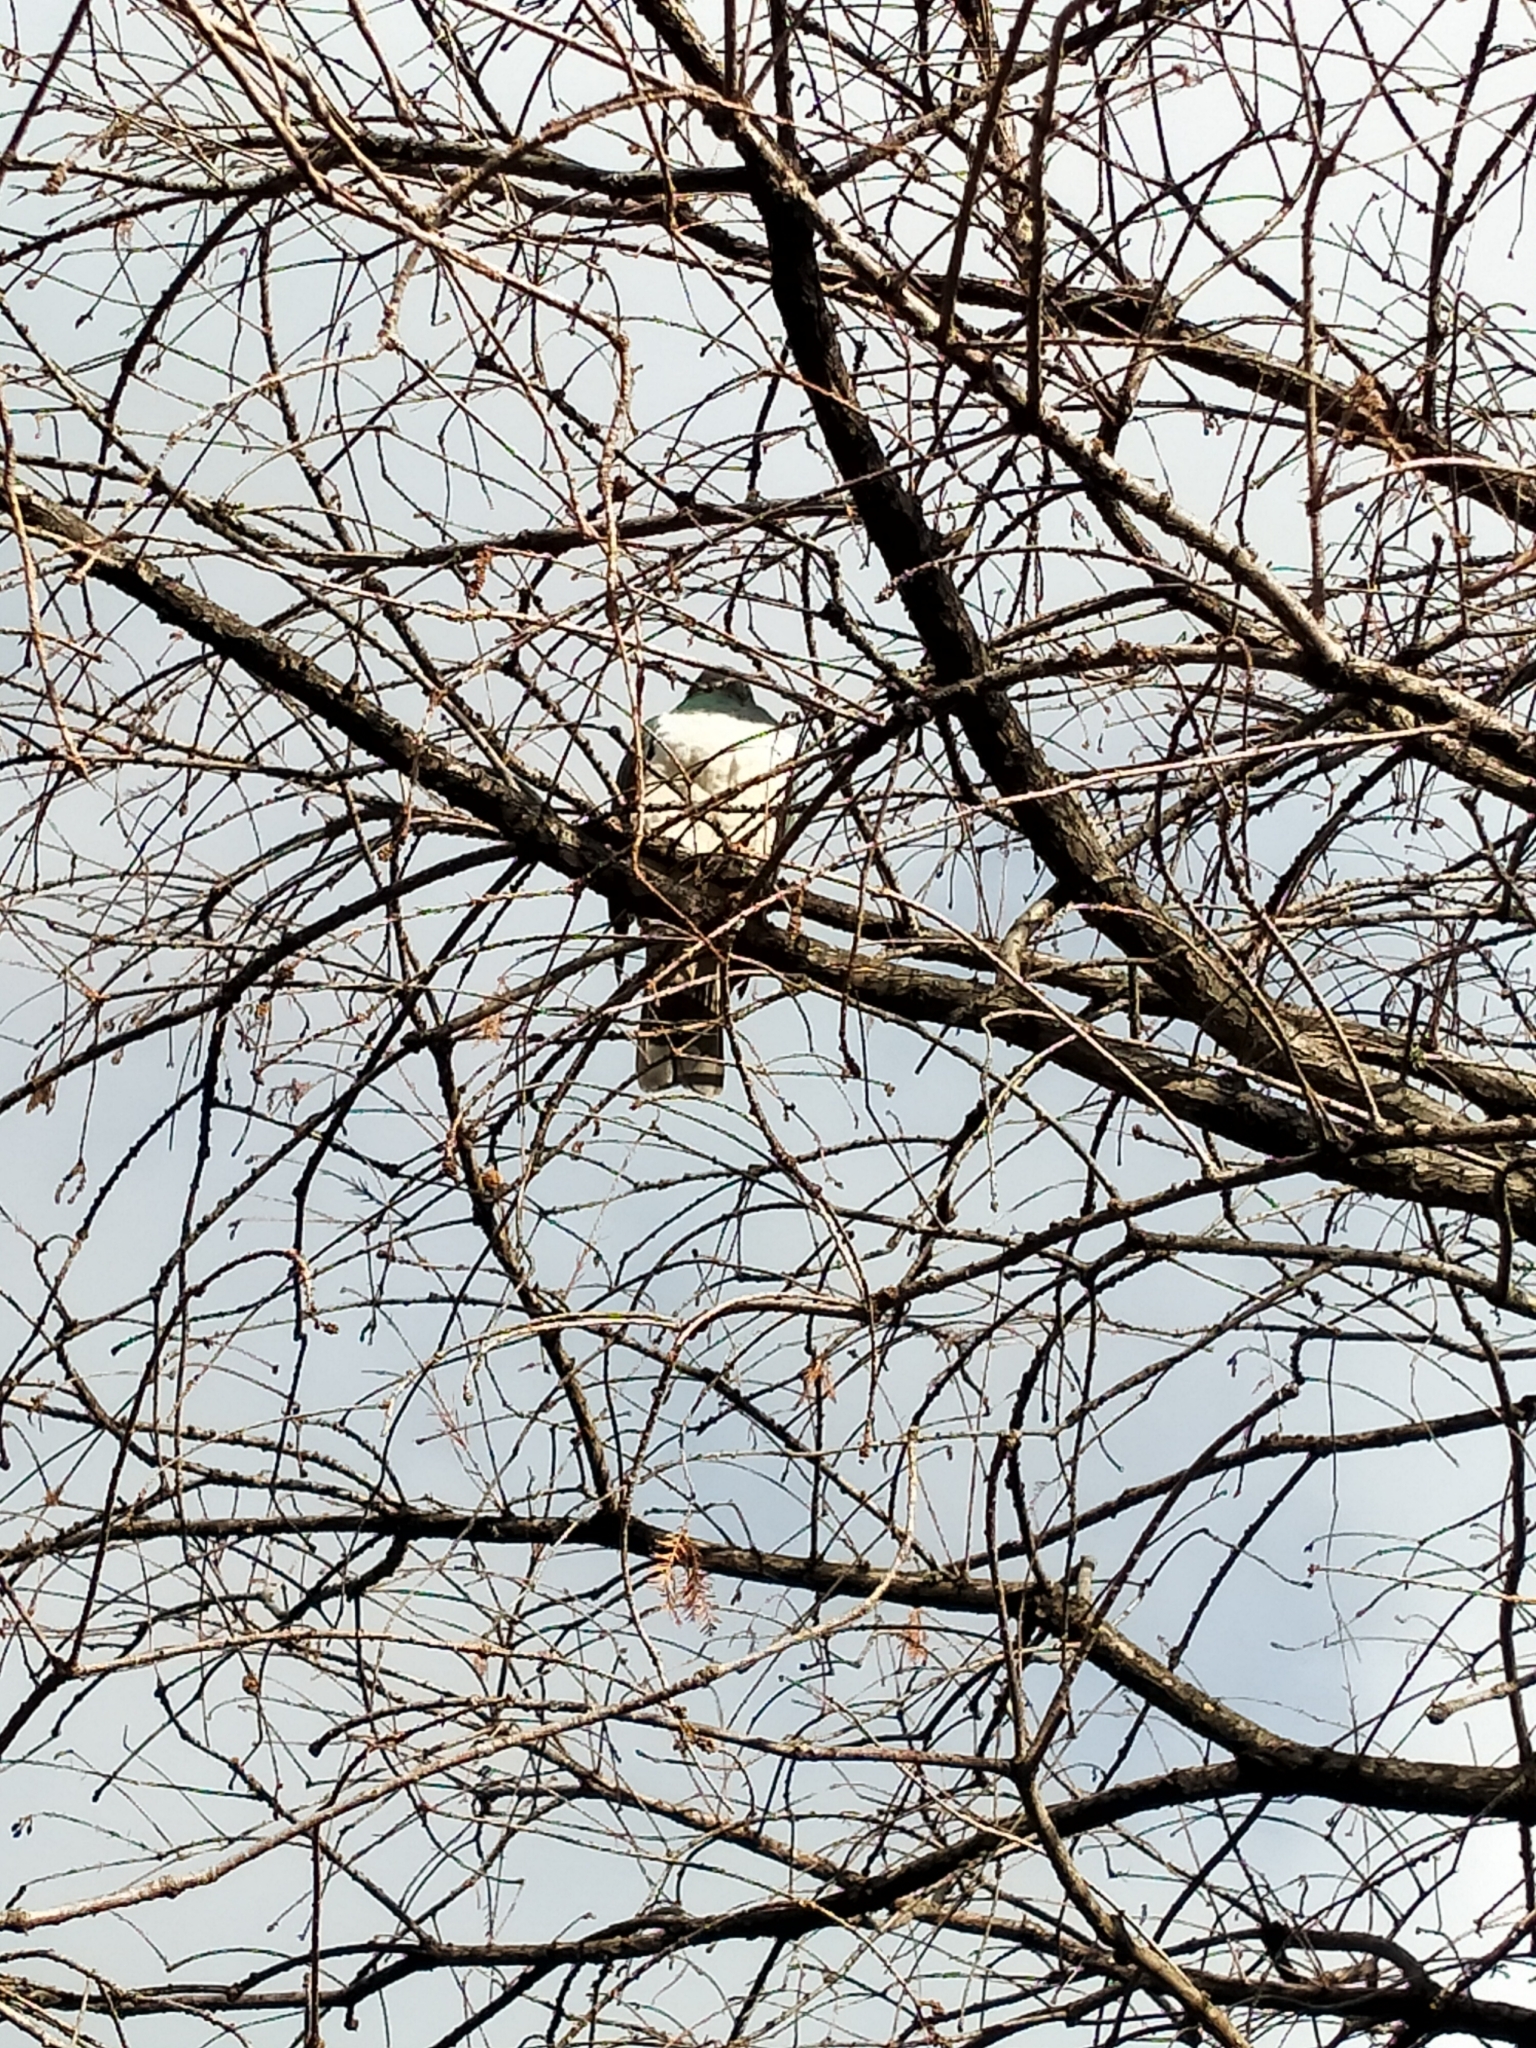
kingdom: Animalia
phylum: Chordata
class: Aves
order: Columbiformes
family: Columbidae
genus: Hemiphaga
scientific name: Hemiphaga novaeseelandiae
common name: New zealand pigeon
